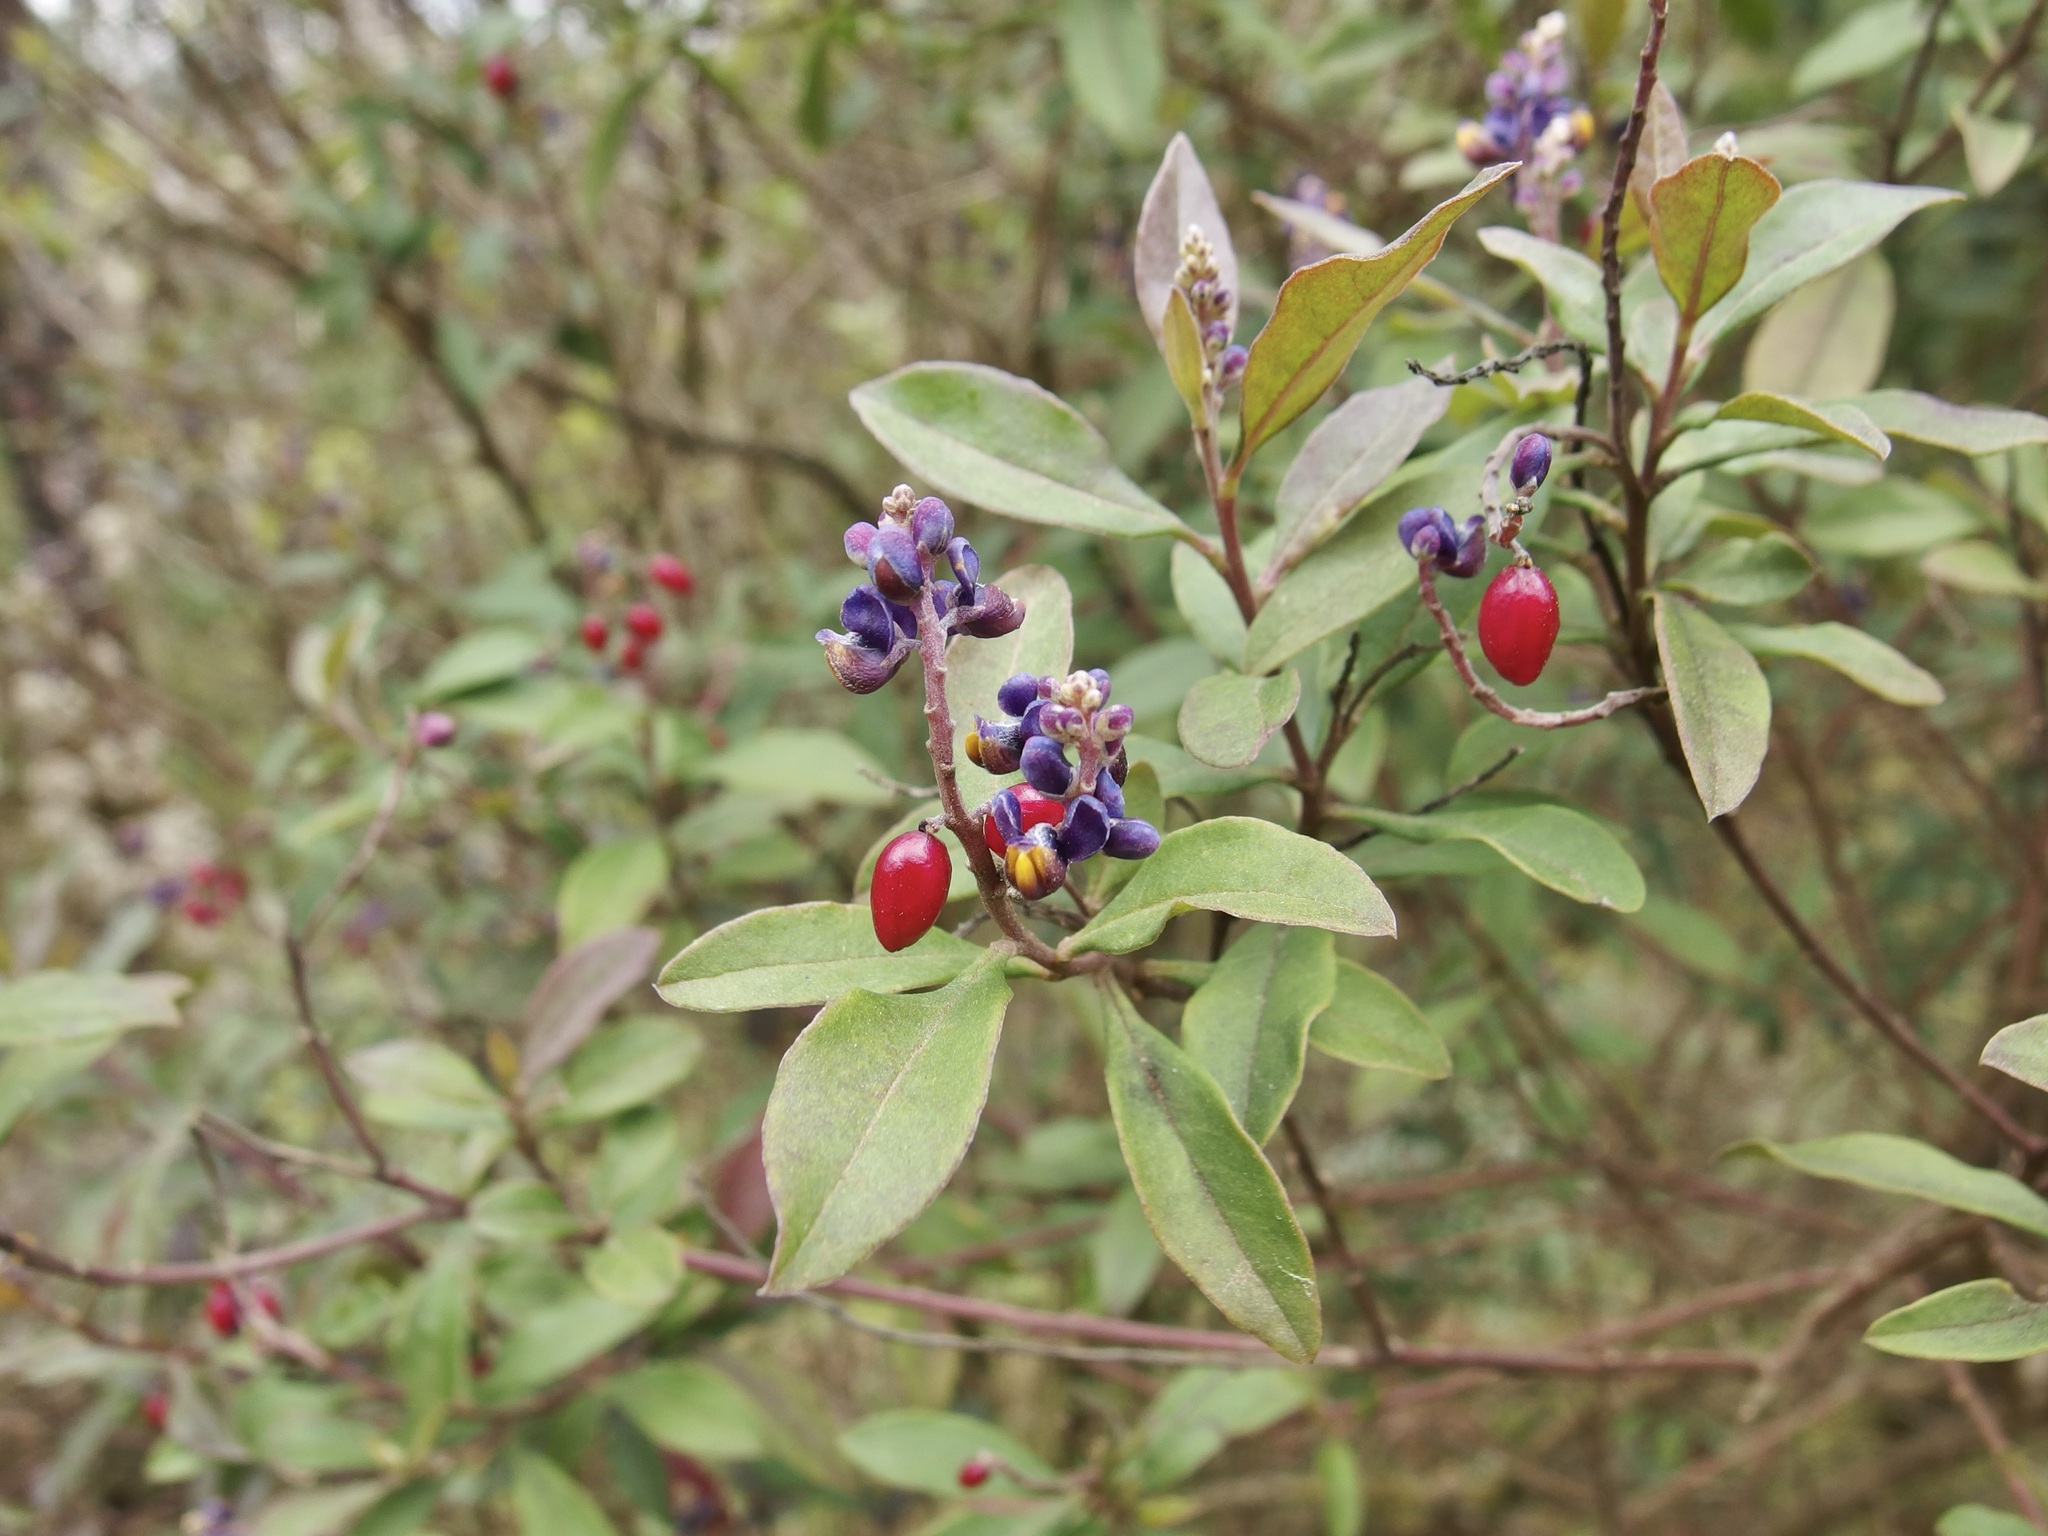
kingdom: Plantae
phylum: Tracheophyta
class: Magnoliopsida
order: Fabales
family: Polygalaceae
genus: Monnina
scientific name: Monnina xalapensis
